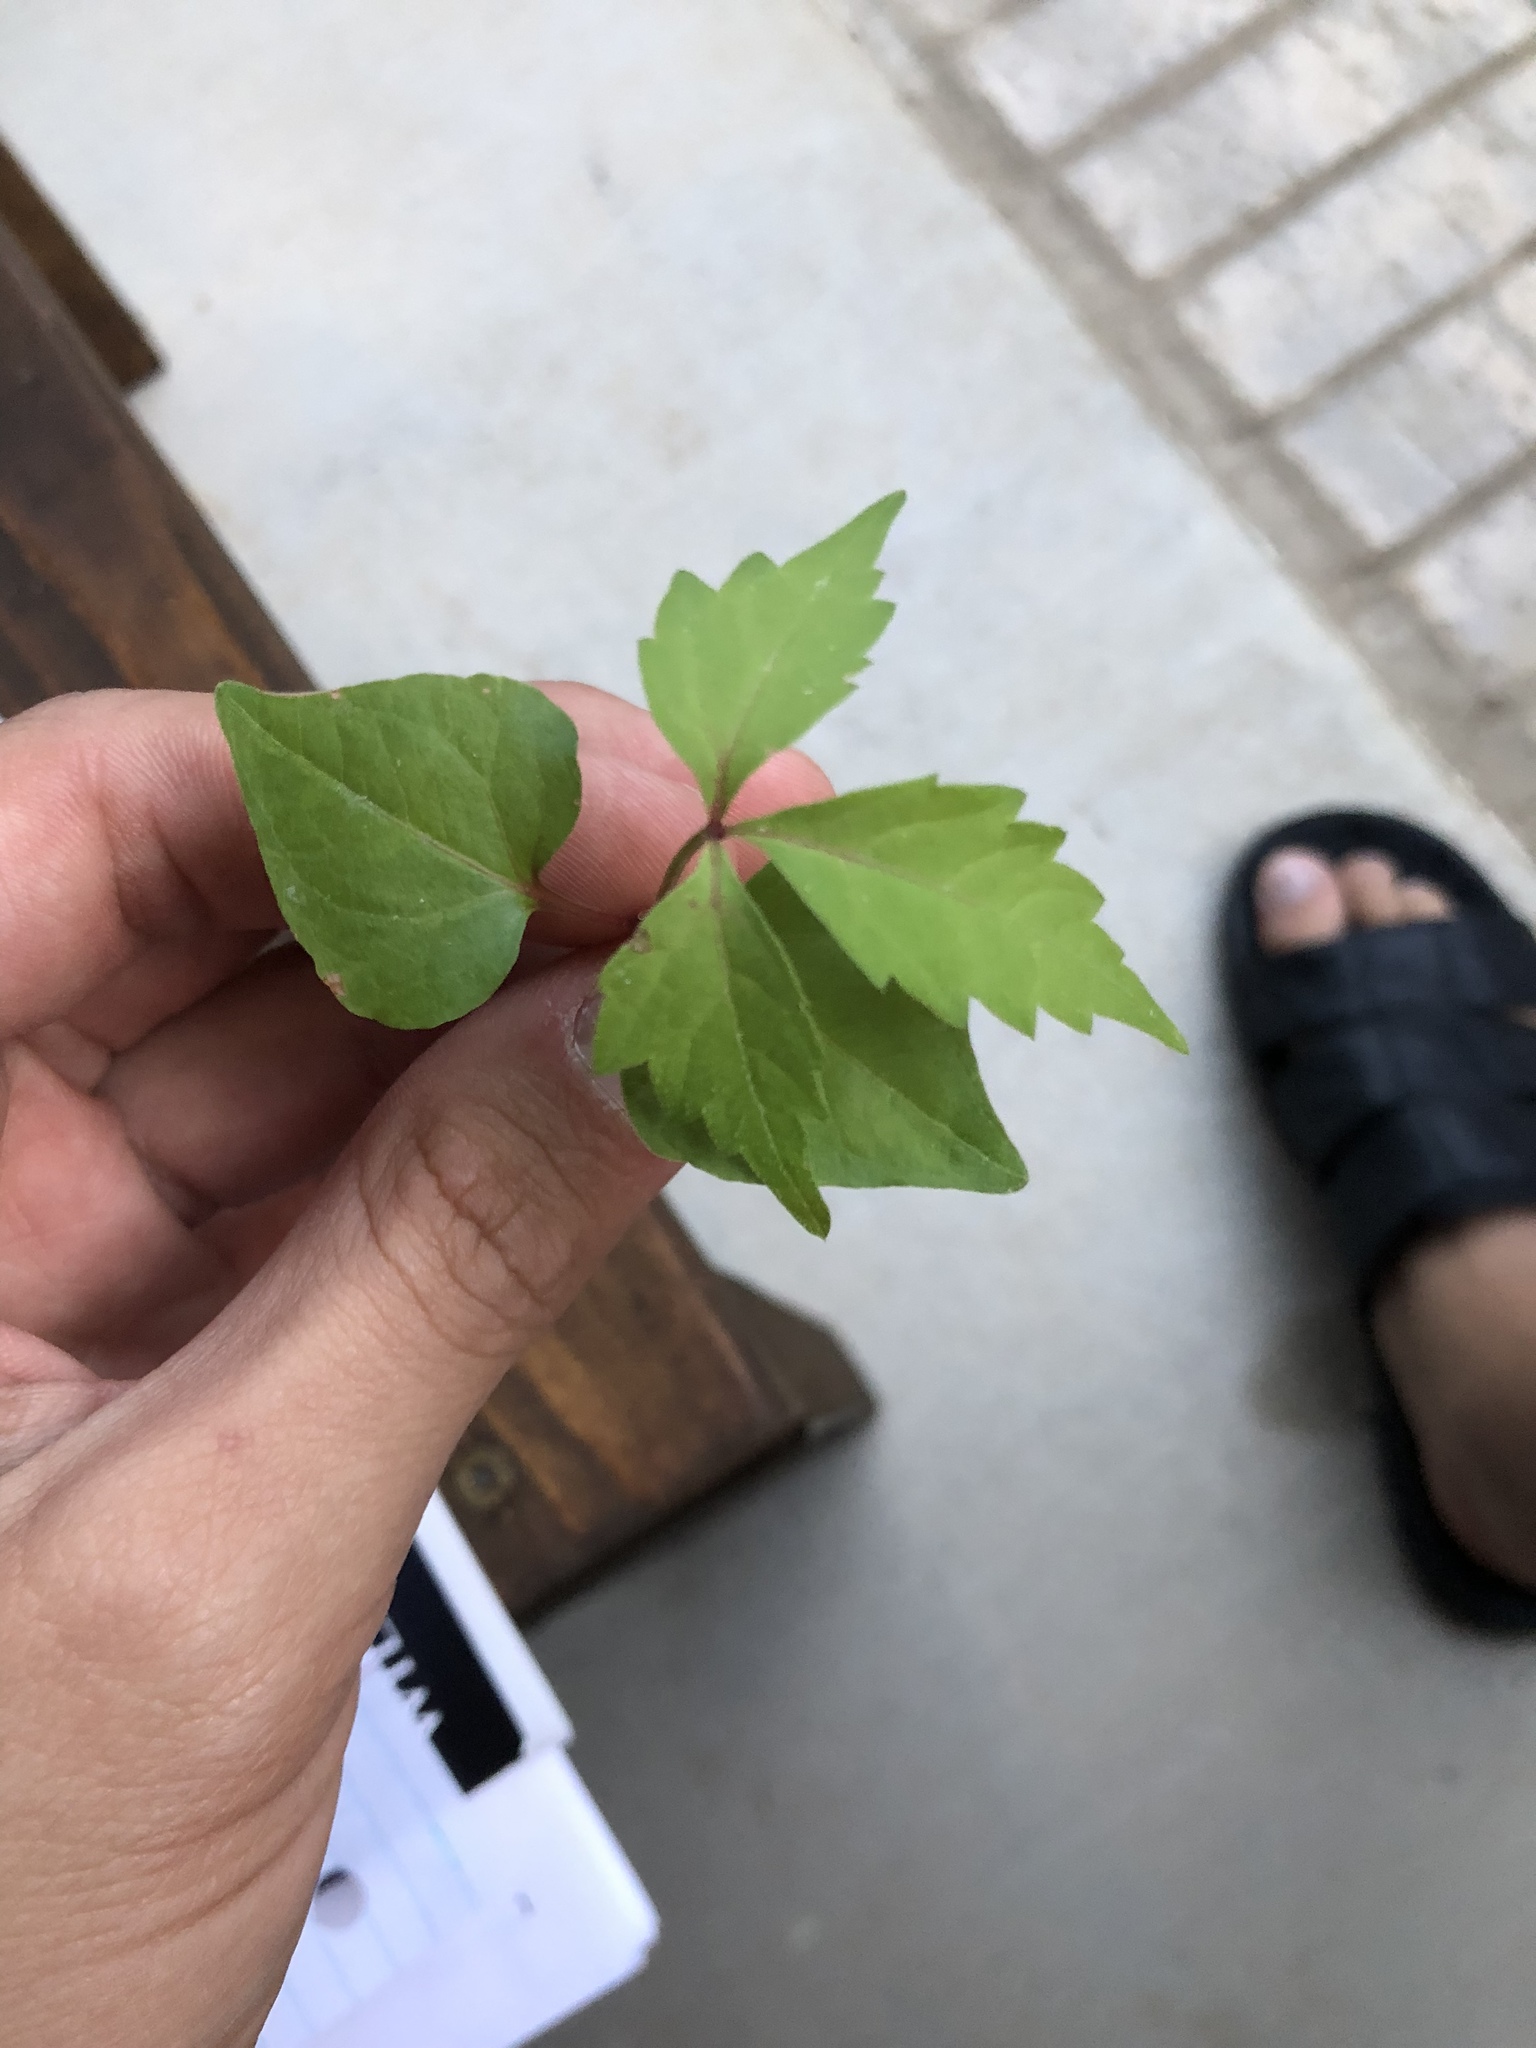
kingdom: Plantae
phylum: Tracheophyta
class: Magnoliopsida
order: Vitales
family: Vitaceae
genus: Parthenocissus
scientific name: Parthenocissus quinquefolia
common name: Virginia-creeper
